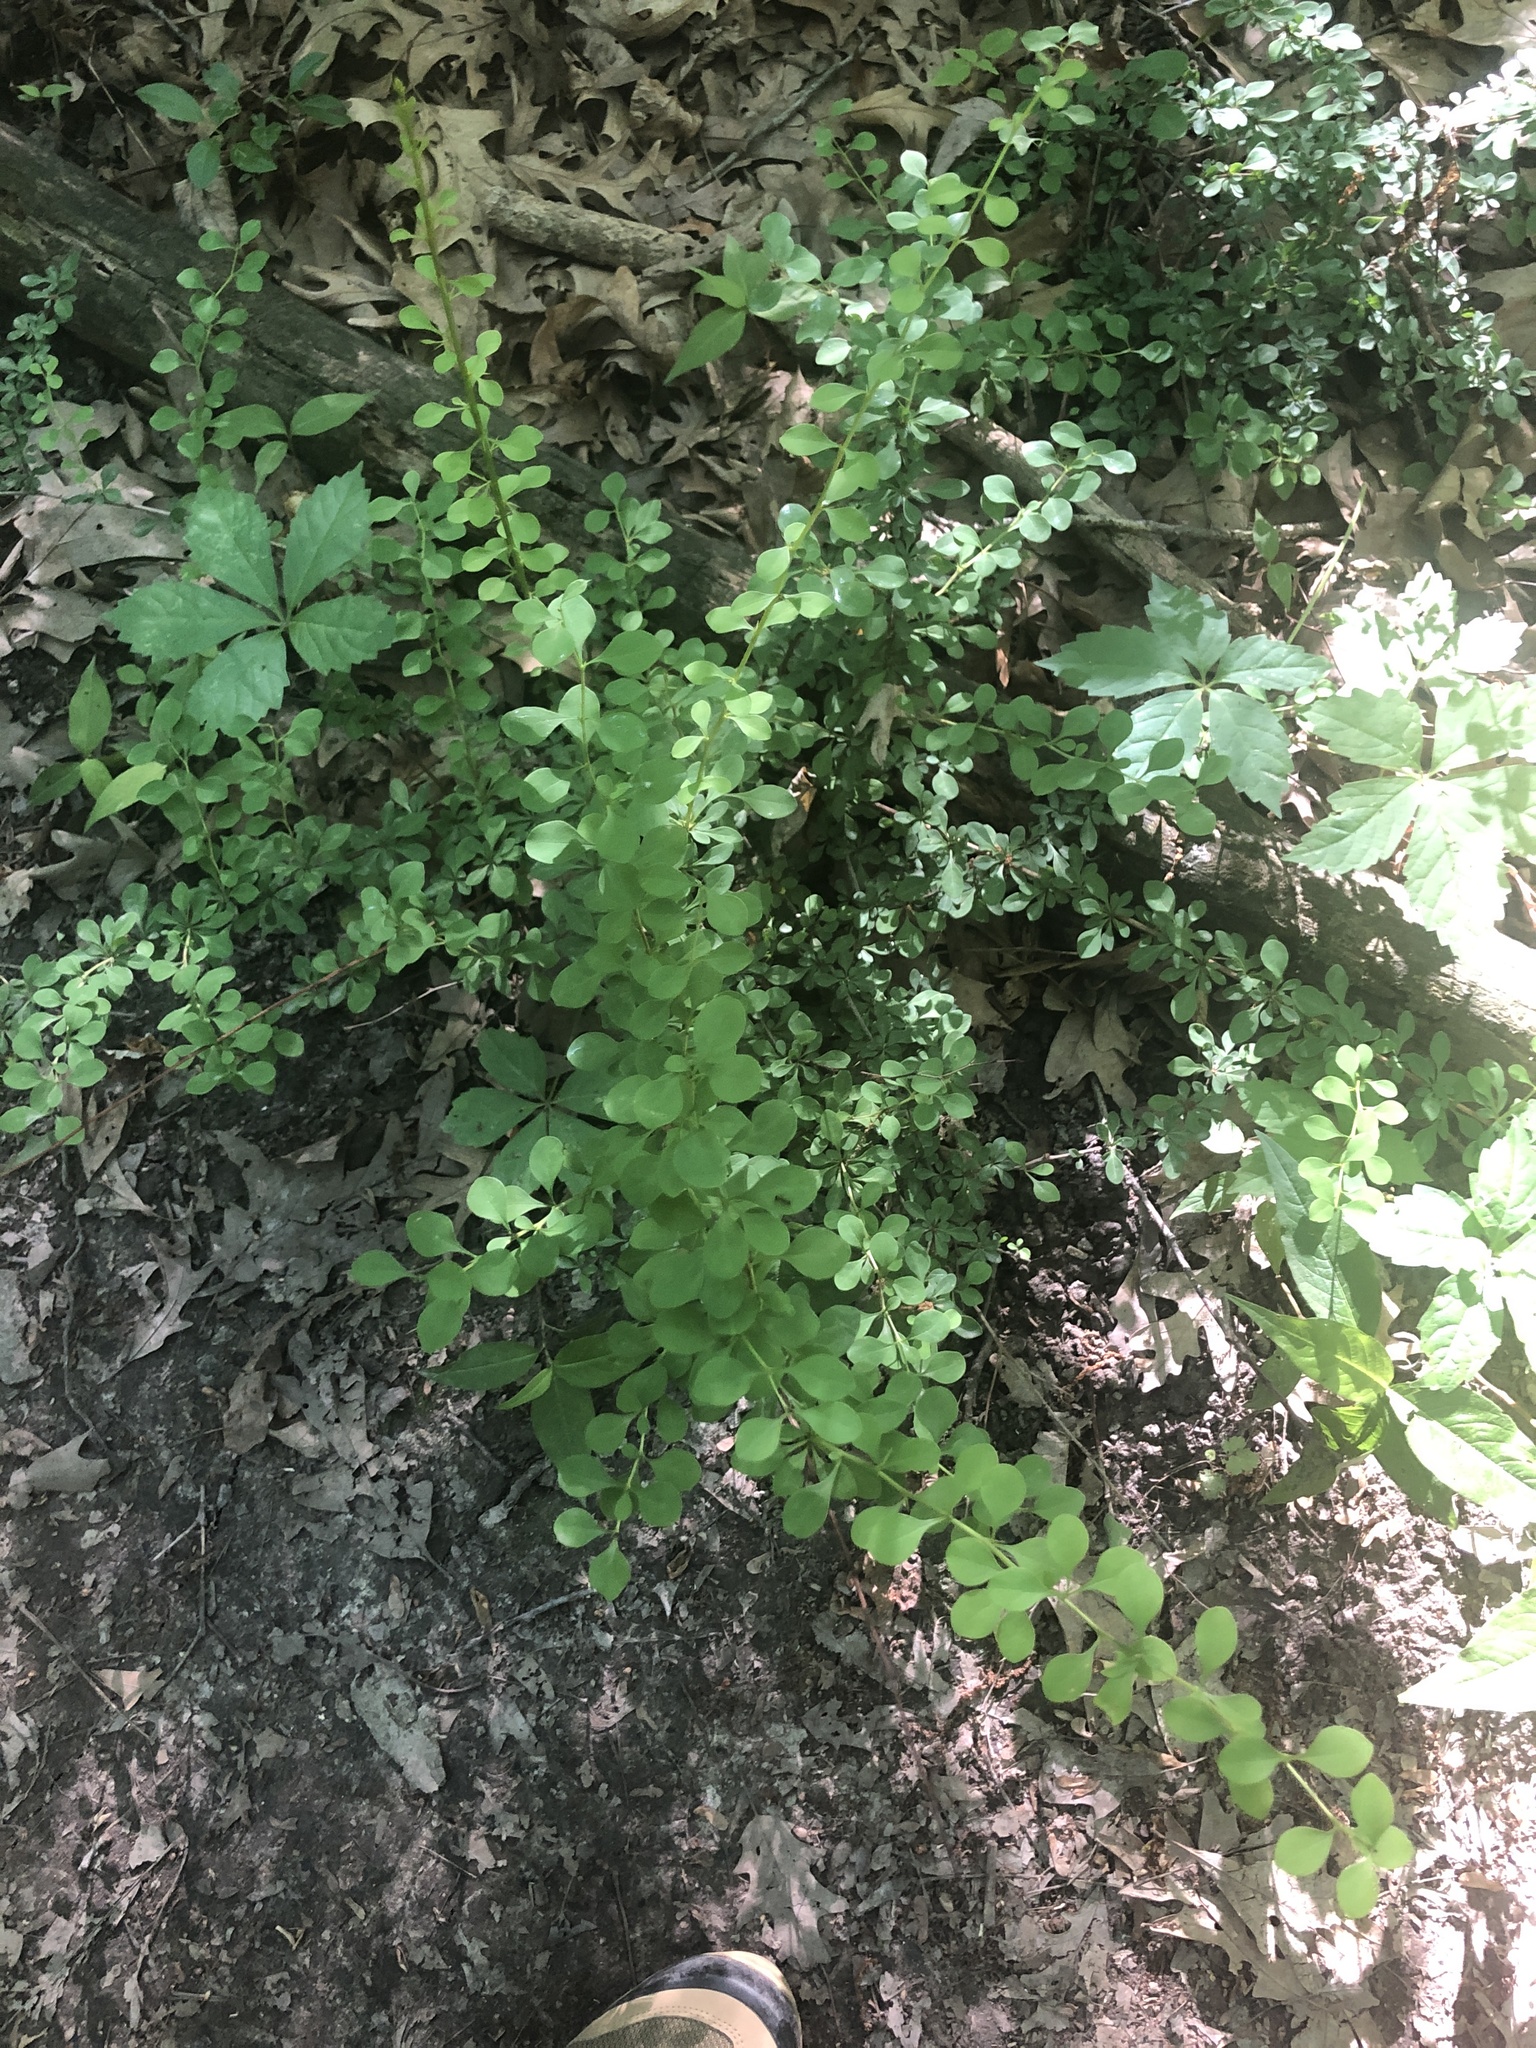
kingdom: Plantae
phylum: Tracheophyta
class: Magnoliopsida
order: Ranunculales
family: Berberidaceae
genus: Berberis
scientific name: Berberis thunbergii
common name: Japanese barberry
